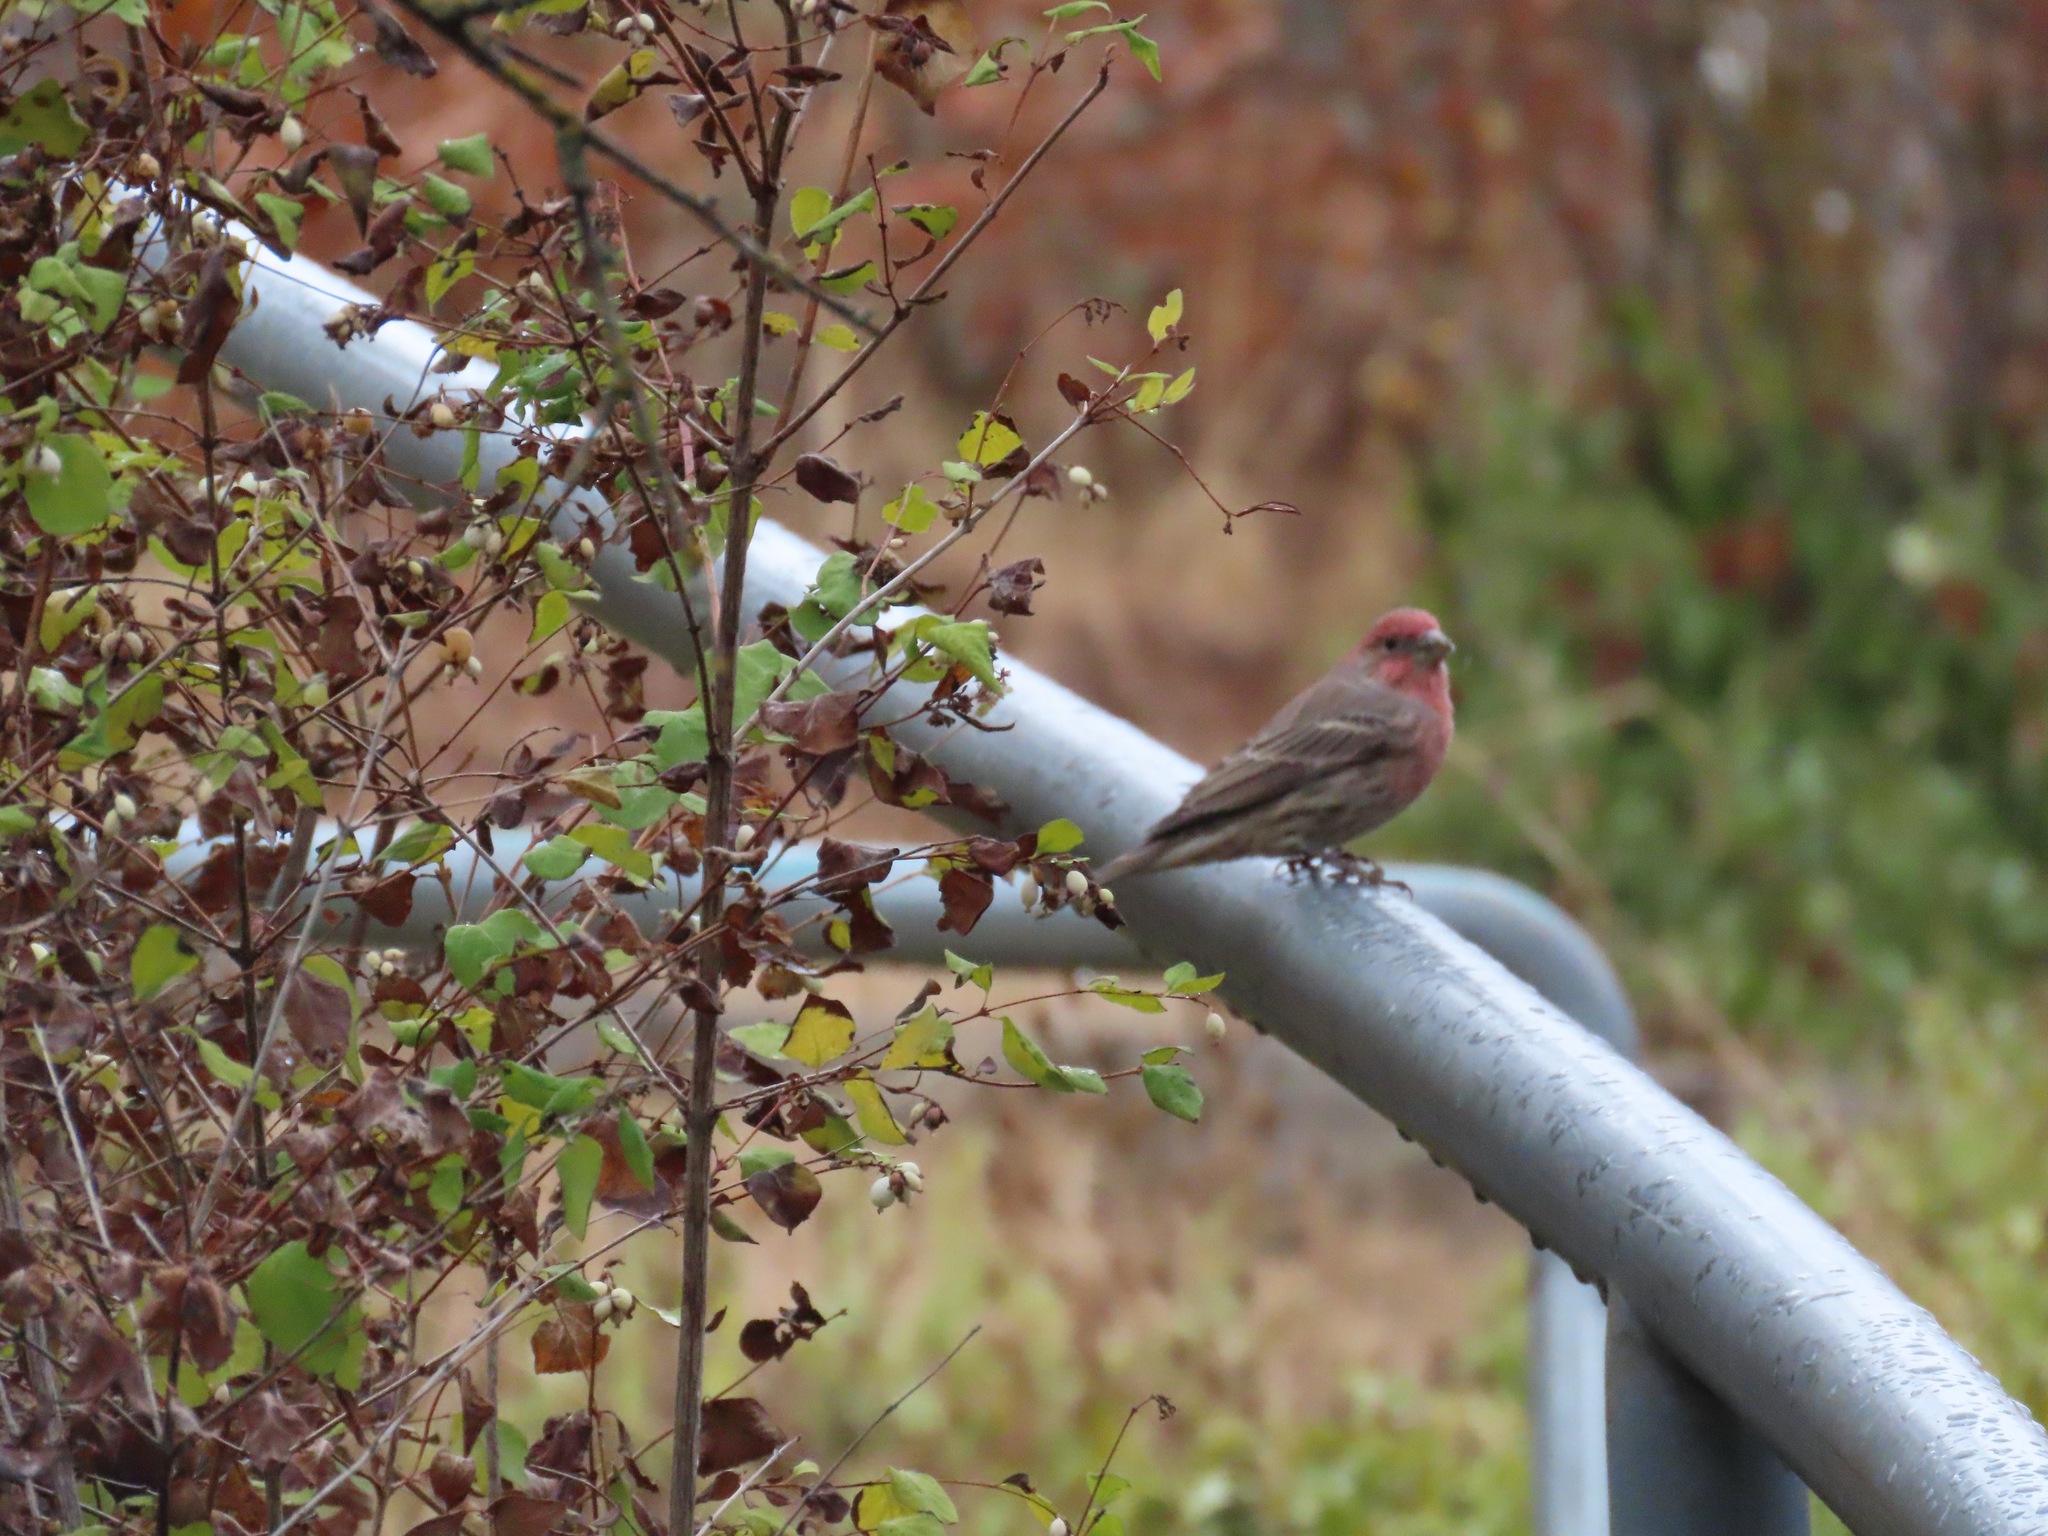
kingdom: Animalia
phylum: Chordata
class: Aves
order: Passeriformes
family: Fringillidae
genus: Haemorhous
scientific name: Haemorhous mexicanus
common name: House finch
